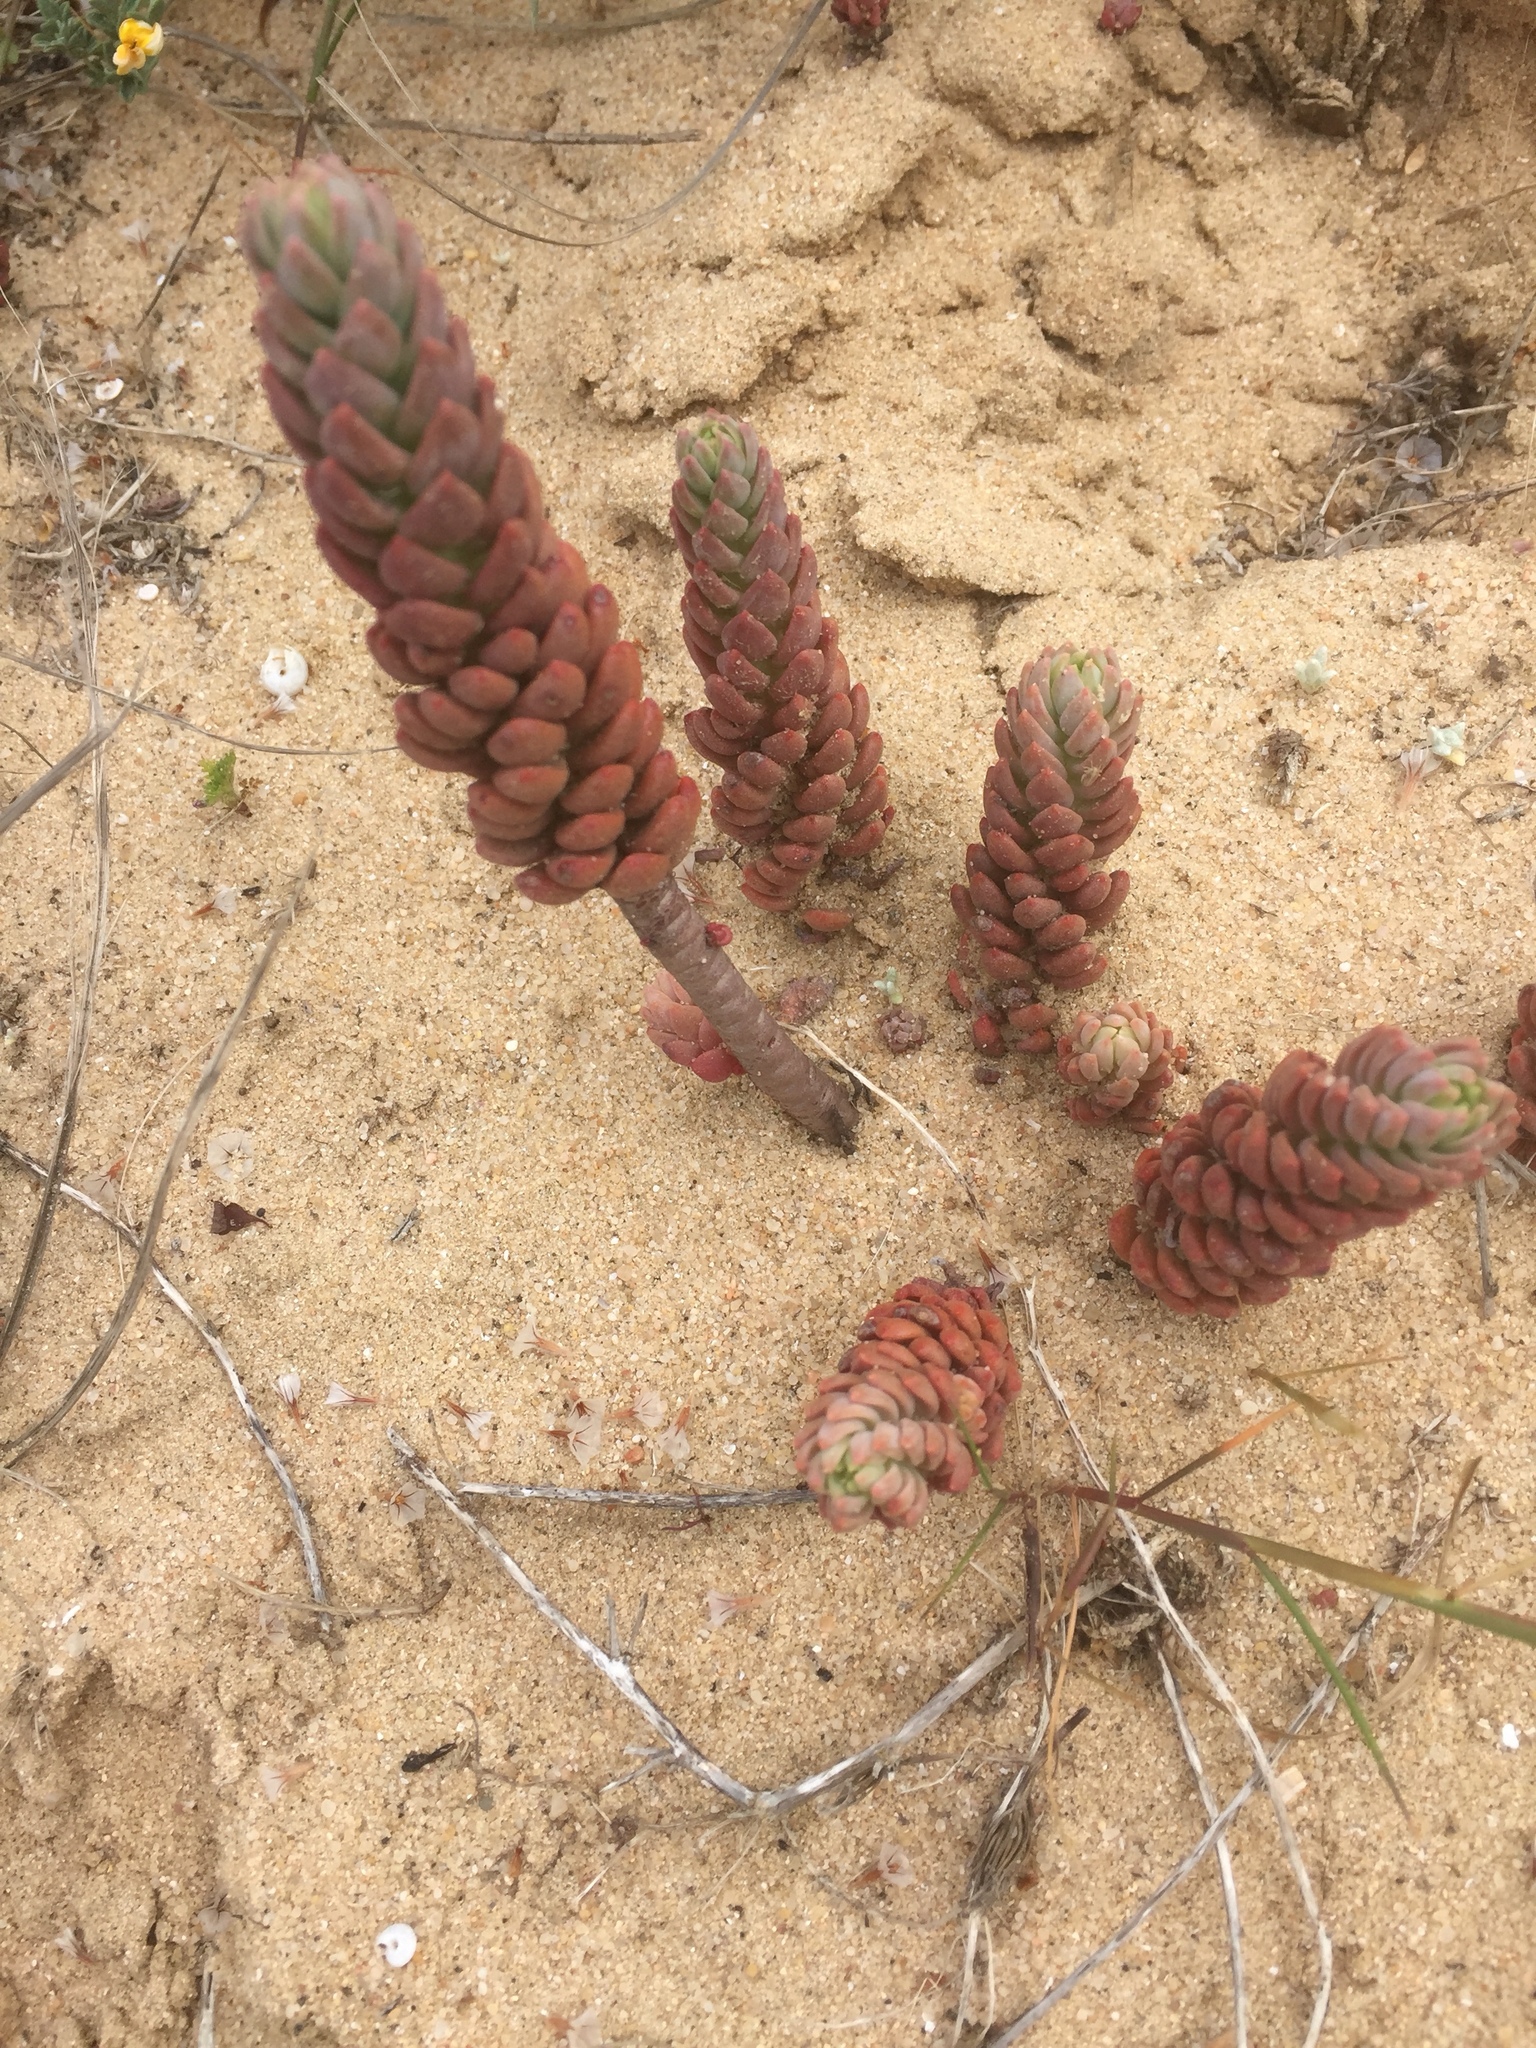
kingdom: Plantae
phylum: Tracheophyta
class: Magnoliopsida
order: Saxifragales
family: Crassulaceae
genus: Petrosedum
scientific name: Petrosedum sediforme
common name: Pale stonecrop
